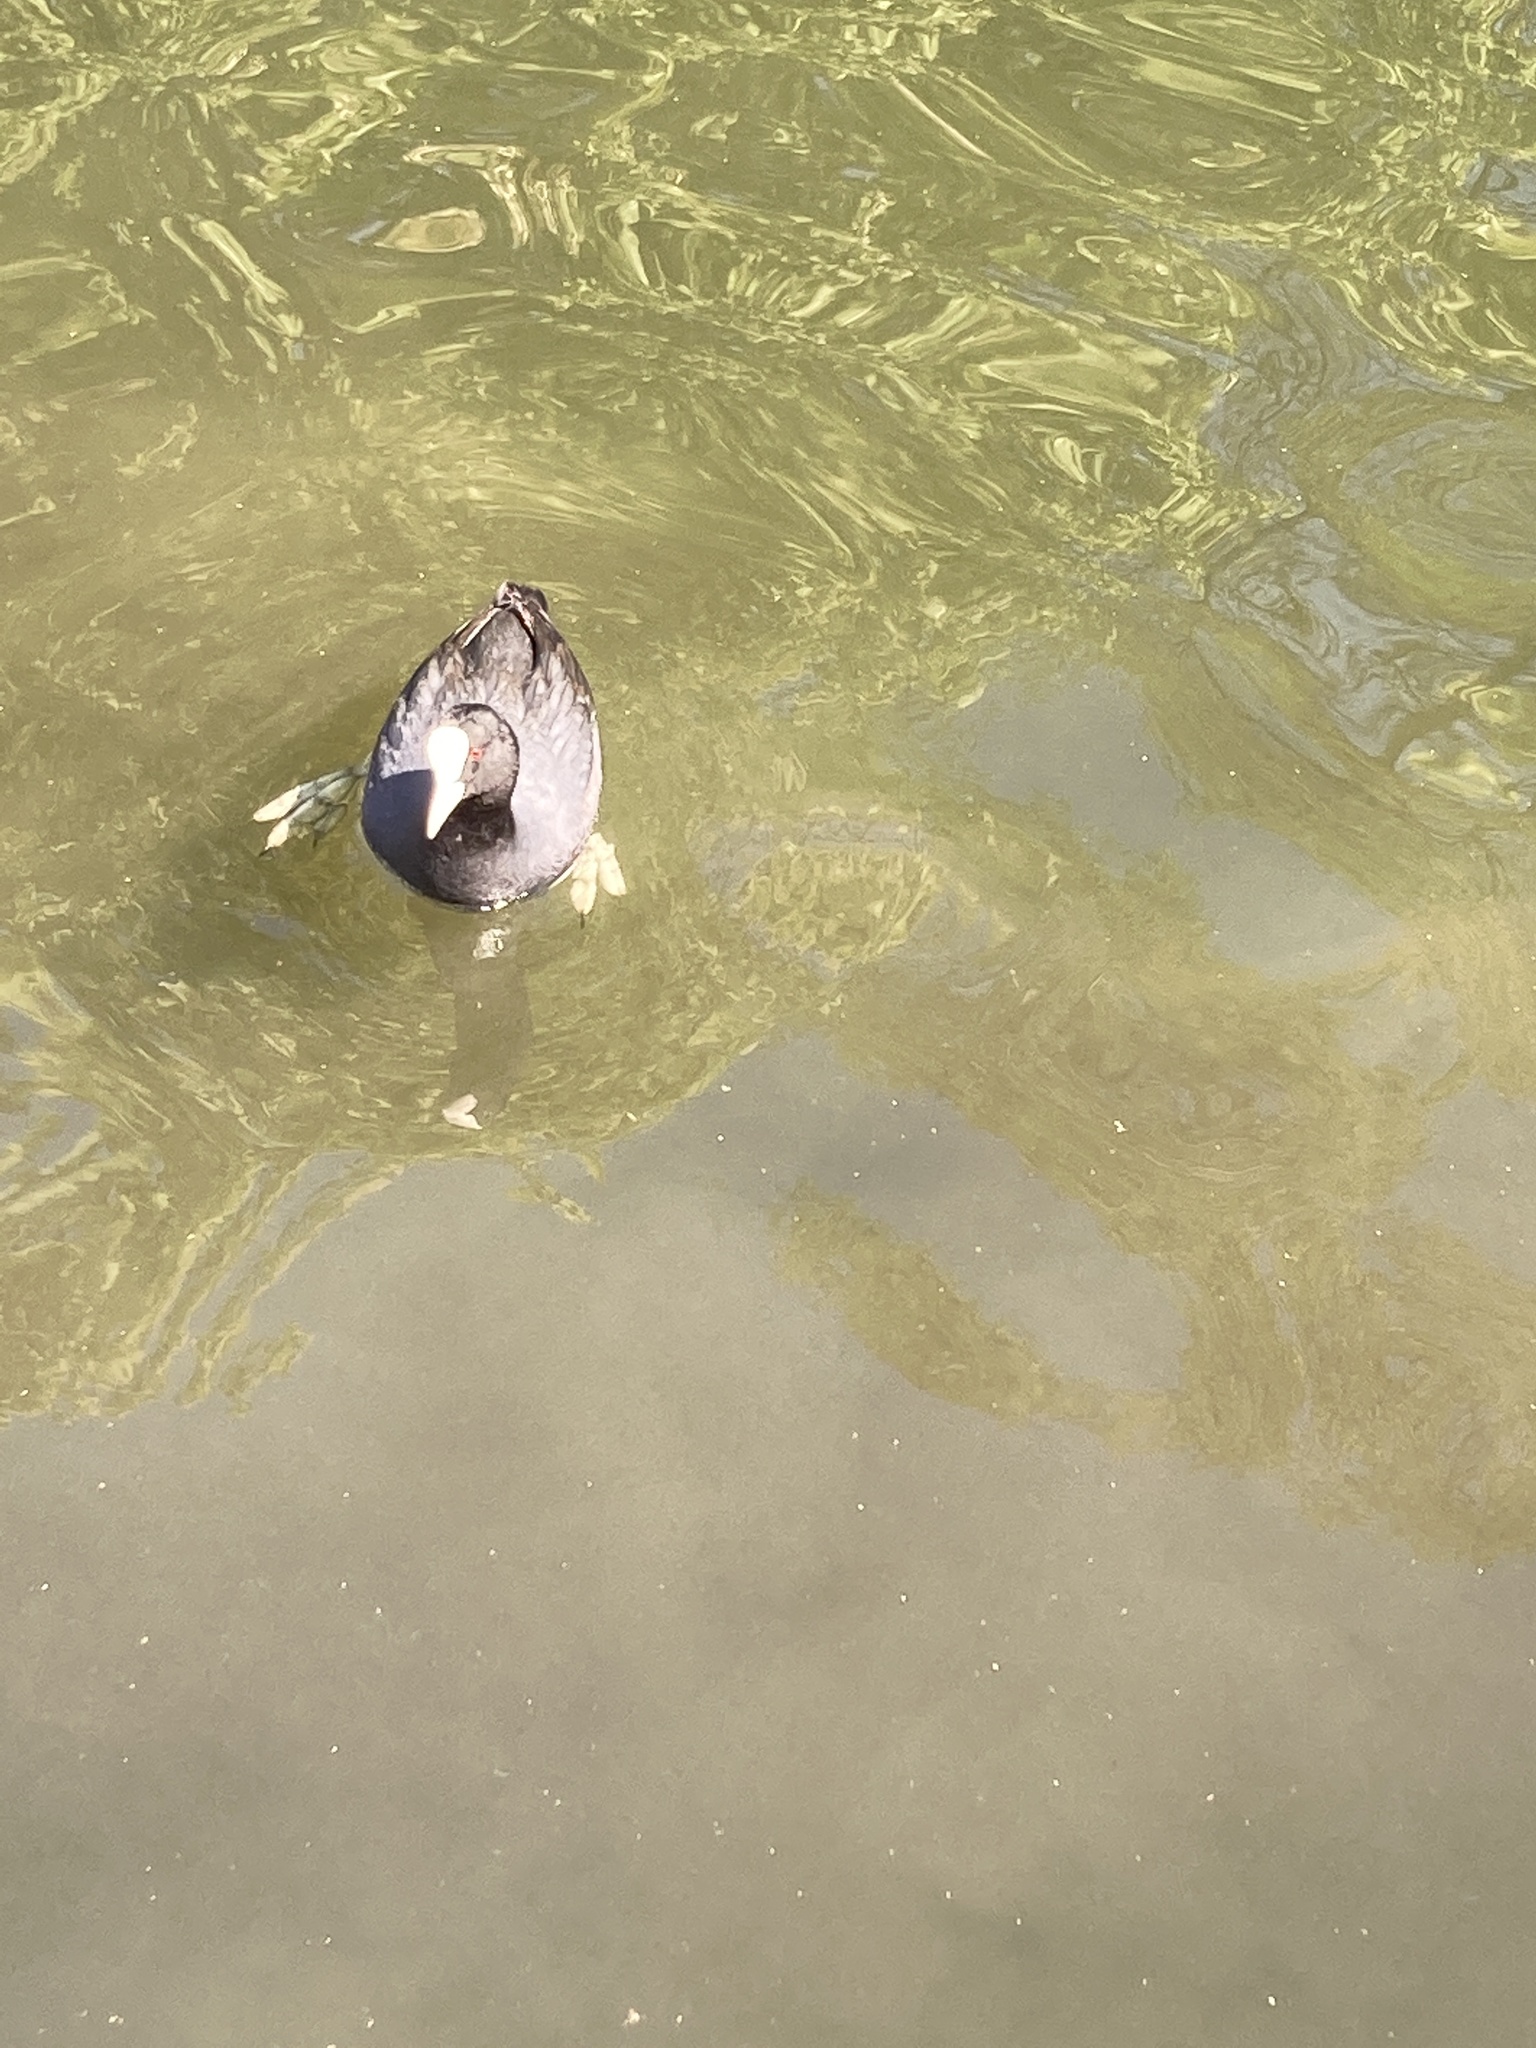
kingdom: Animalia
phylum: Chordata
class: Aves
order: Gruiformes
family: Rallidae
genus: Fulica
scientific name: Fulica atra
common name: Eurasian coot
